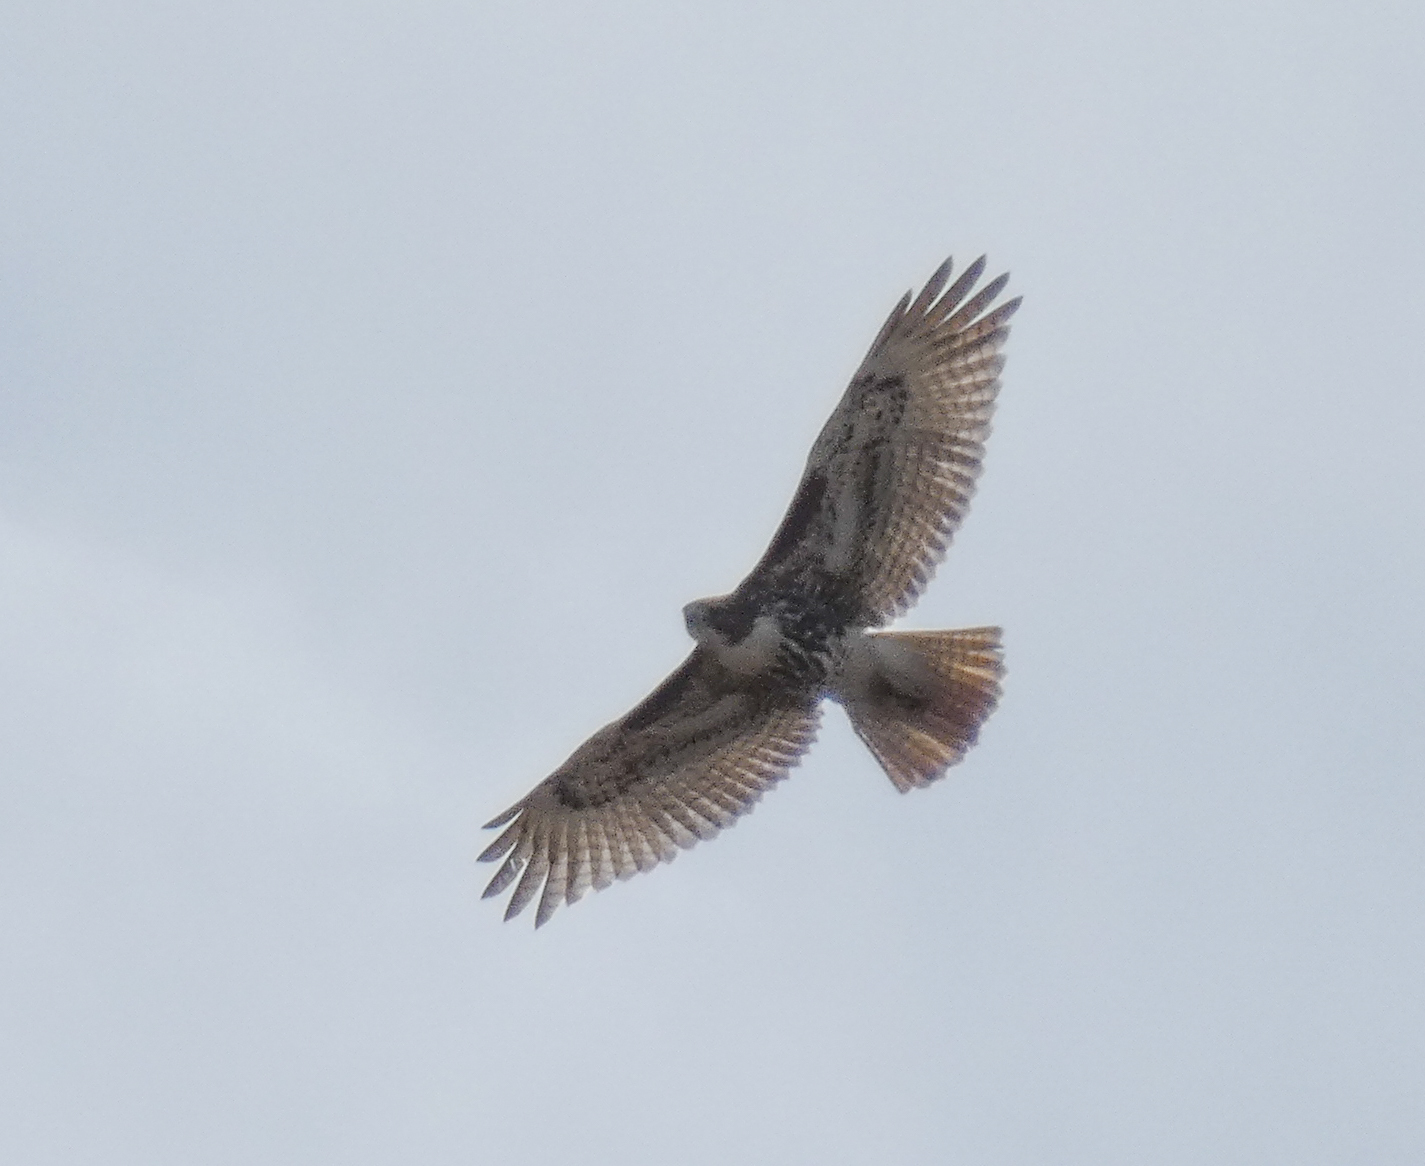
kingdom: Animalia
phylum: Chordata
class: Aves
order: Accipitriformes
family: Accipitridae
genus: Buteo
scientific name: Buteo jamaicensis
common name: Red-tailed hawk
